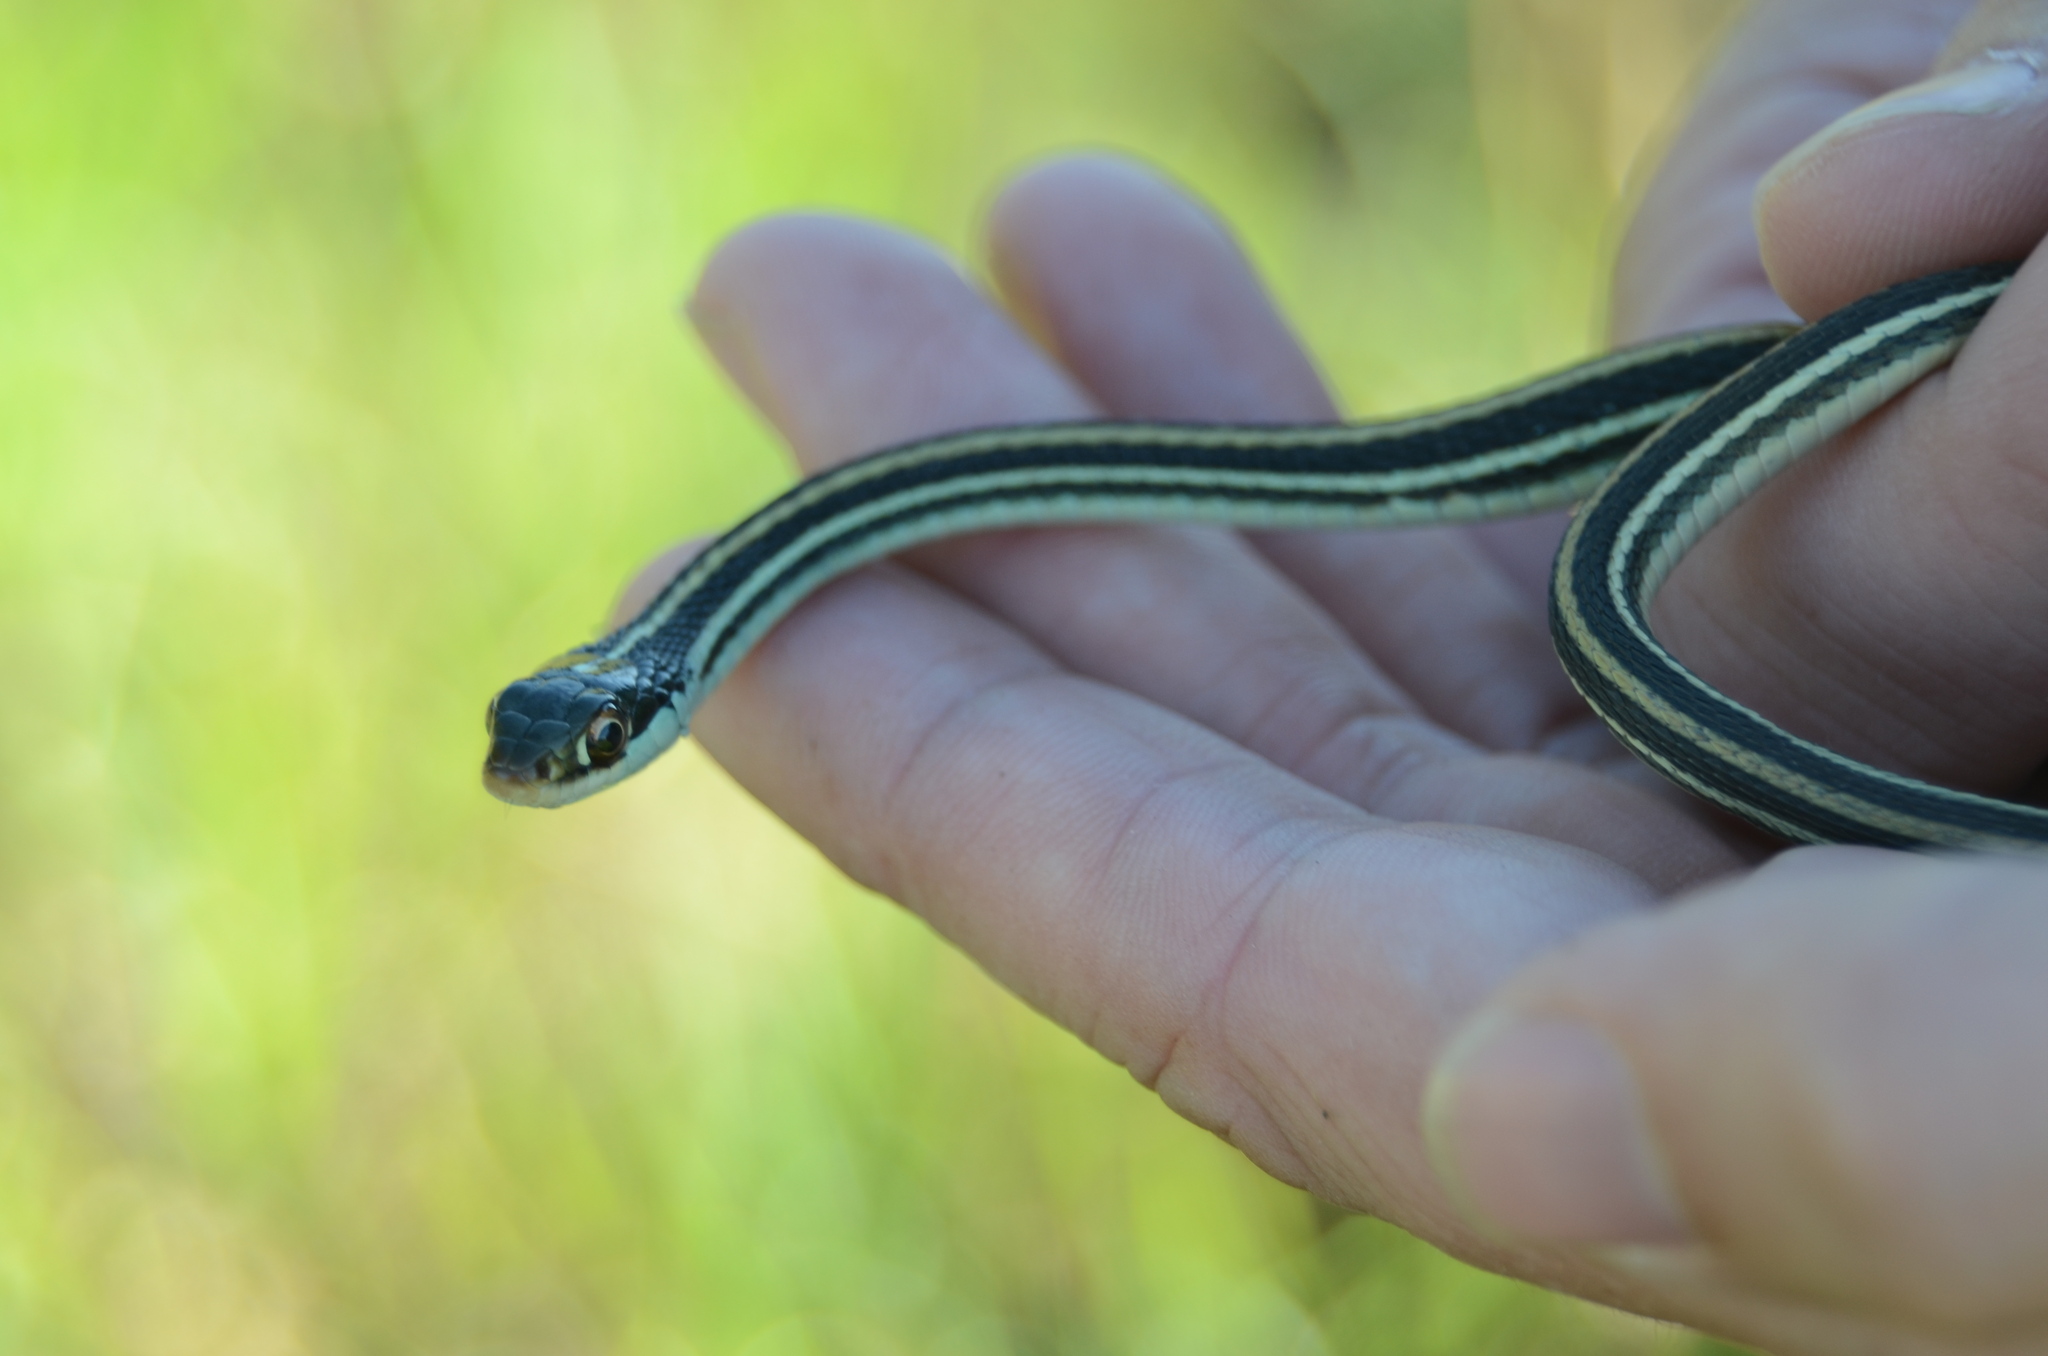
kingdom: Animalia
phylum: Chordata
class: Squamata
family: Colubridae
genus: Thamnophis
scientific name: Thamnophis proximus
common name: Western ribbon snake
